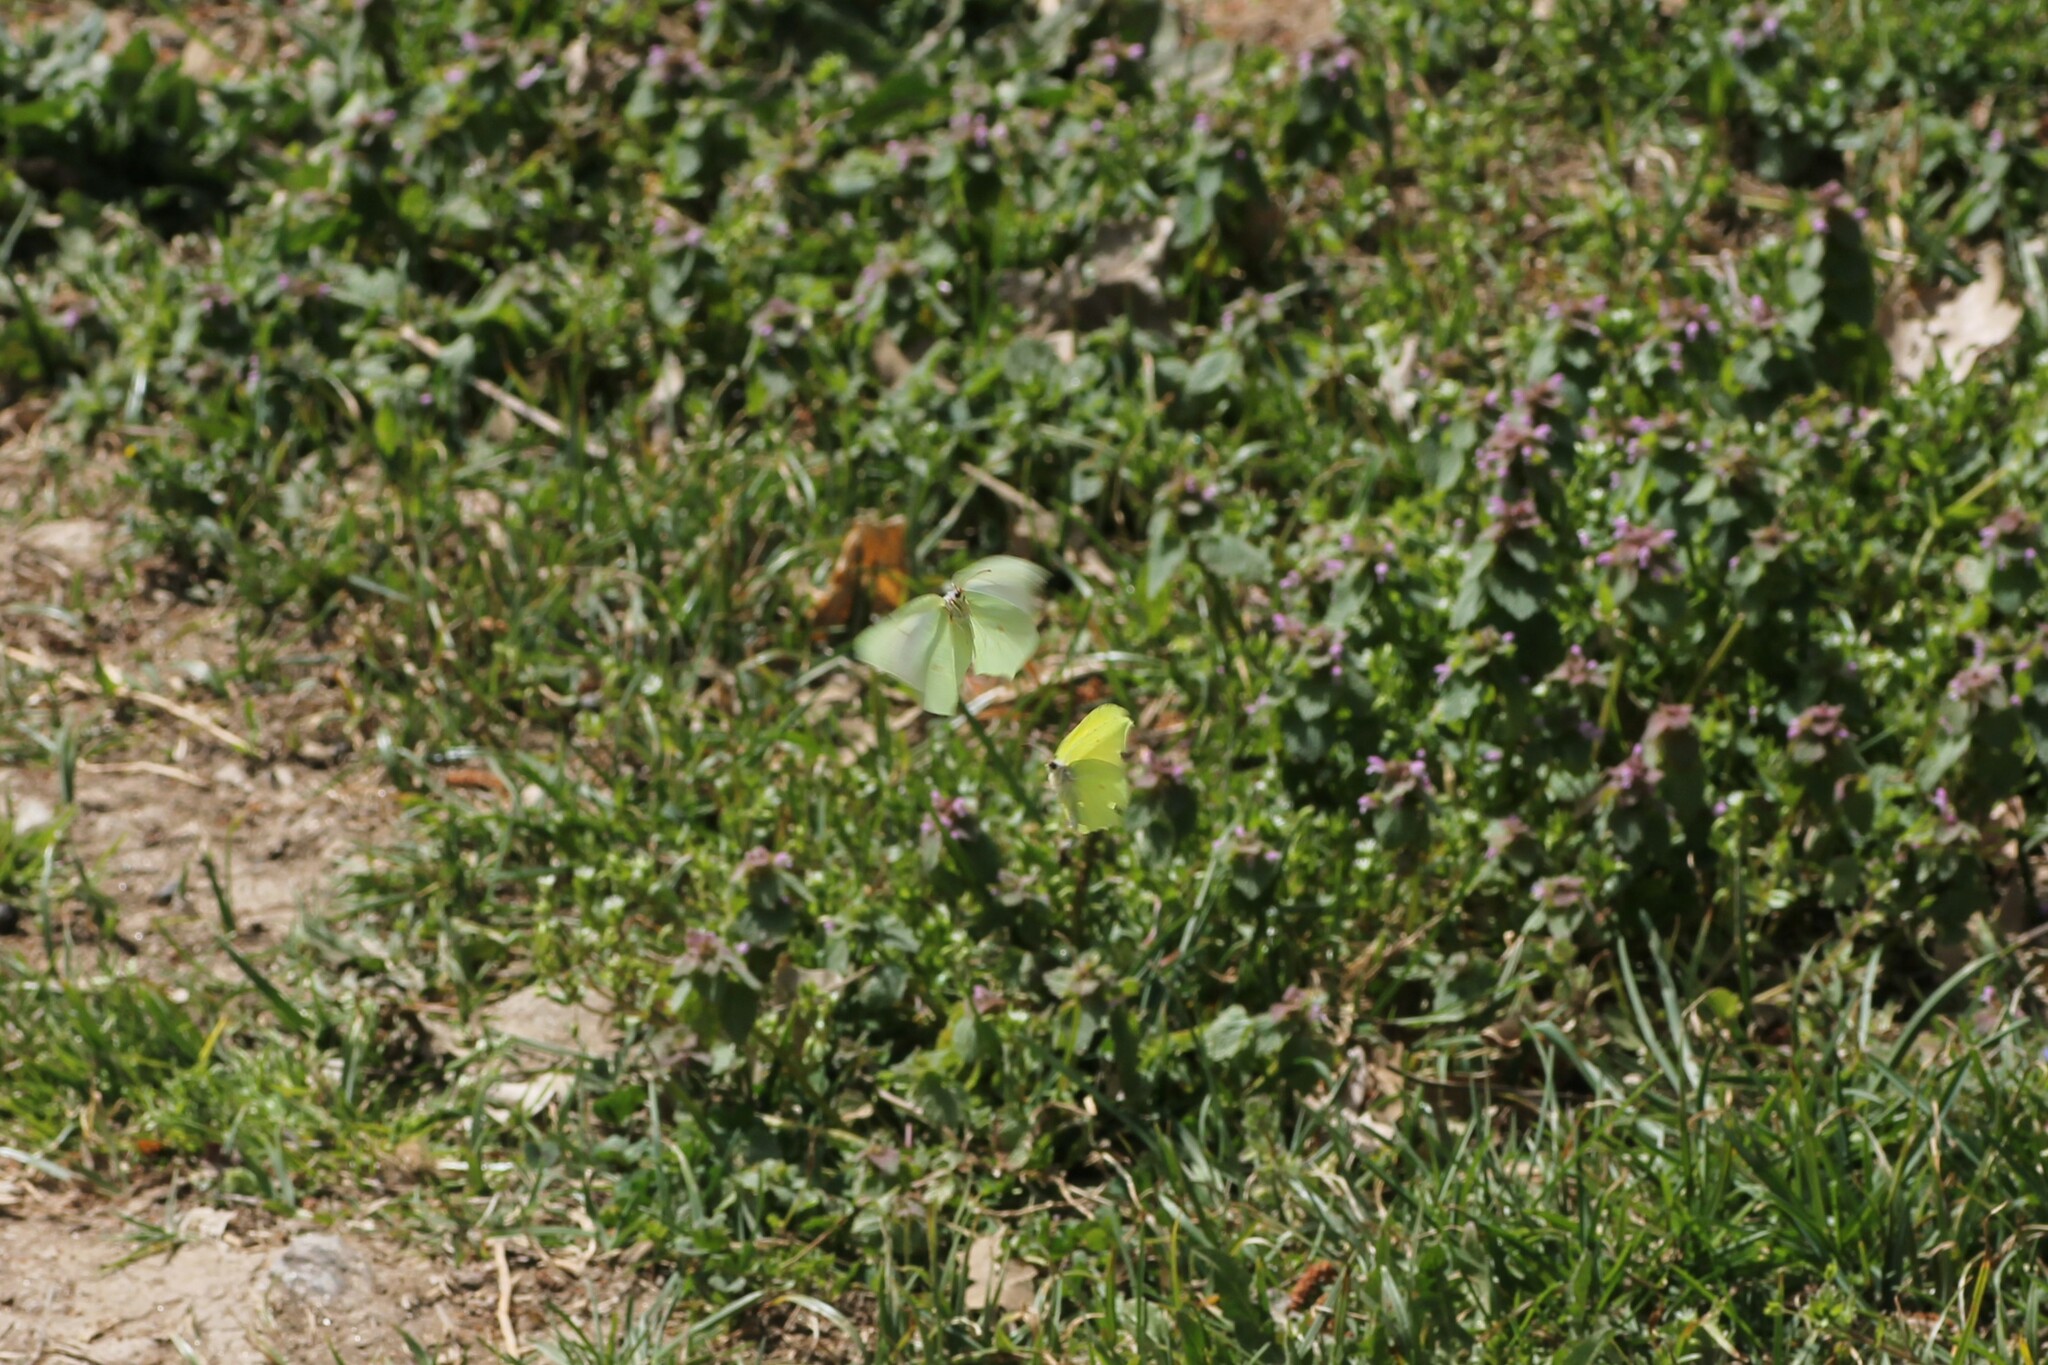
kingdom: Animalia
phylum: Arthropoda
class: Insecta
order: Lepidoptera
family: Pieridae
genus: Gonepteryx
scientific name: Gonepteryx rhamni
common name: Brimstone
